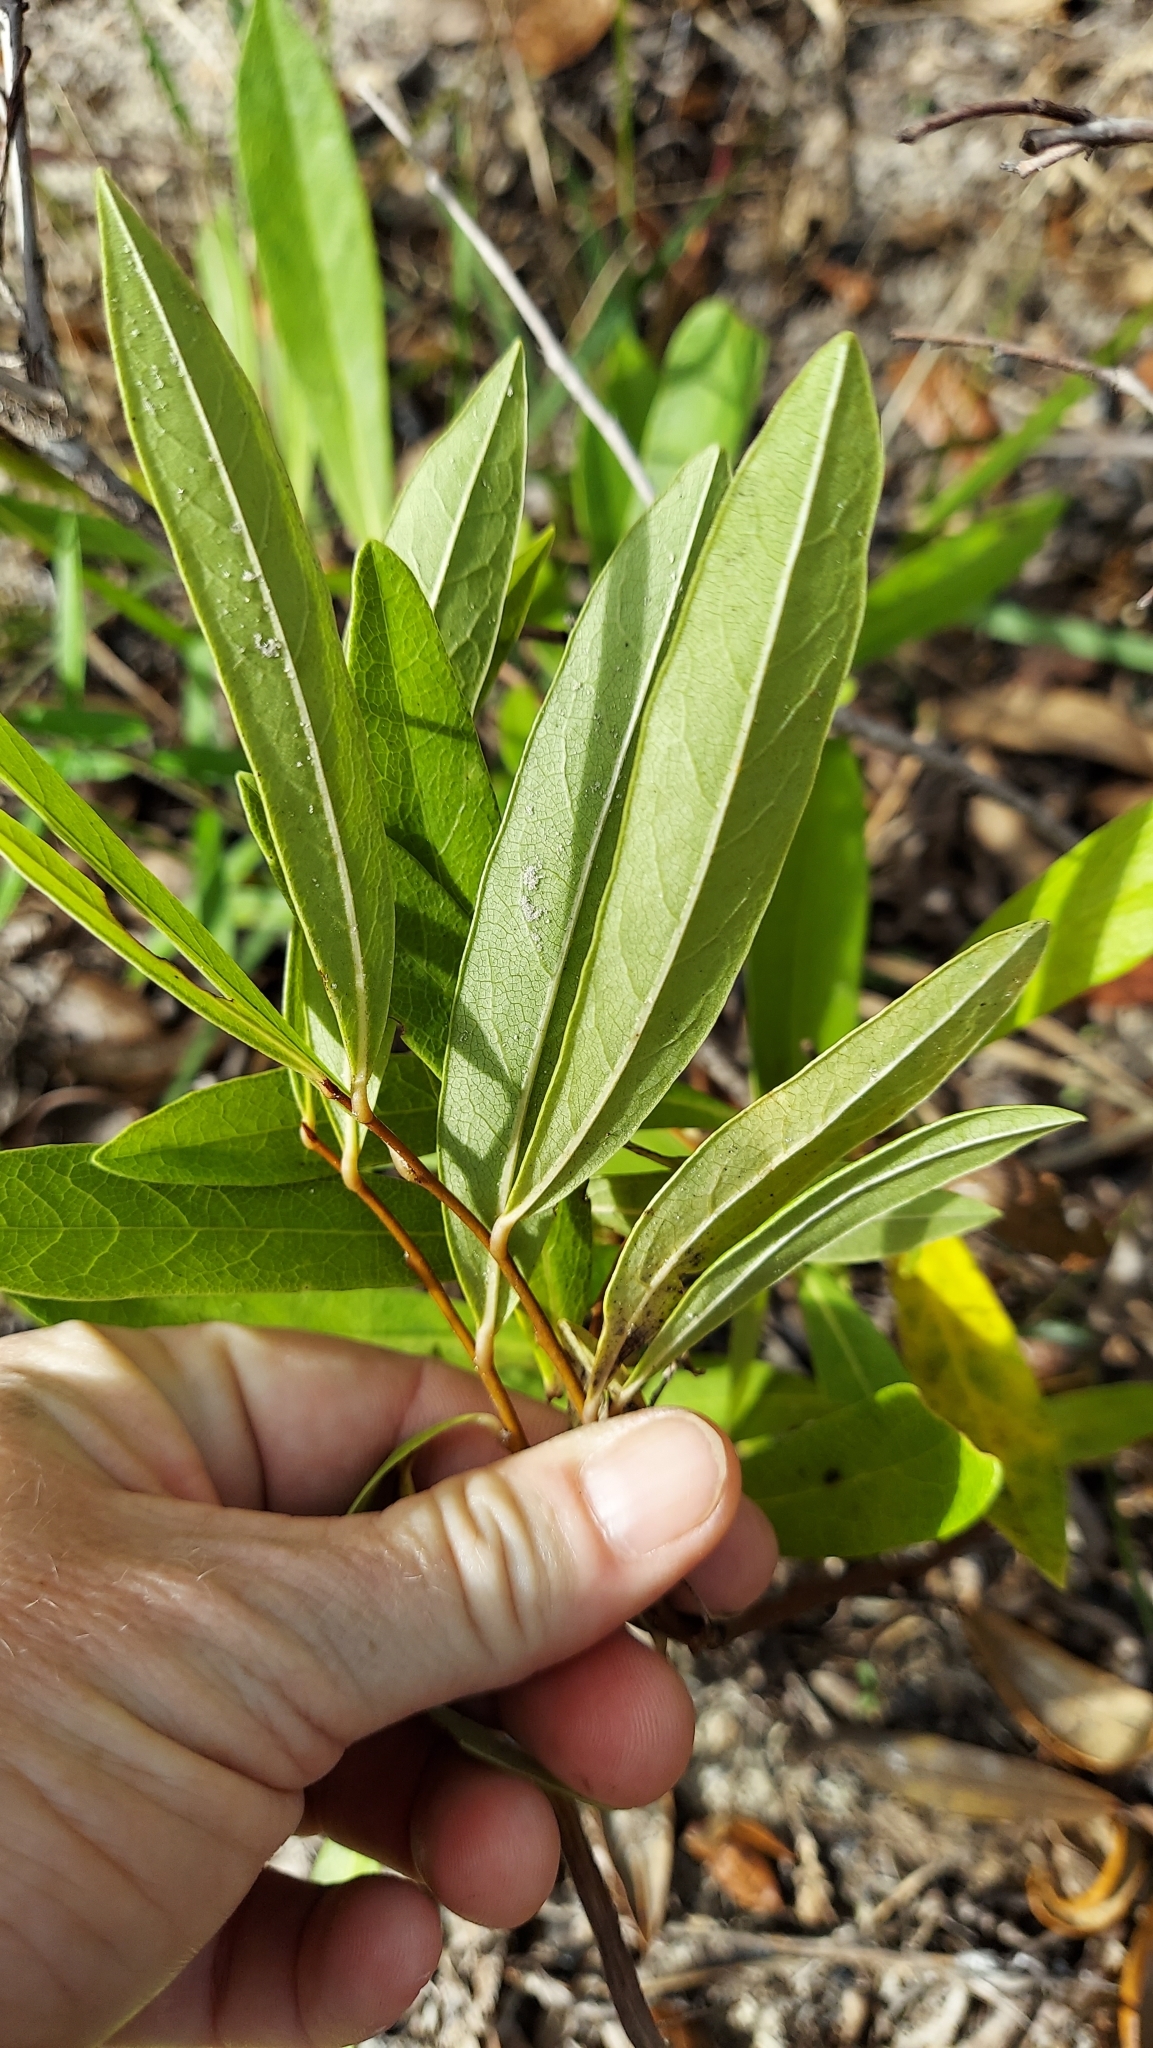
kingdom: Plantae
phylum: Tracheophyta
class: Magnoliopsida
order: Magnoliales
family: Annonaceae
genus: Asimina
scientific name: Asimina pygmaea
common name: Dwarf pawpaw
